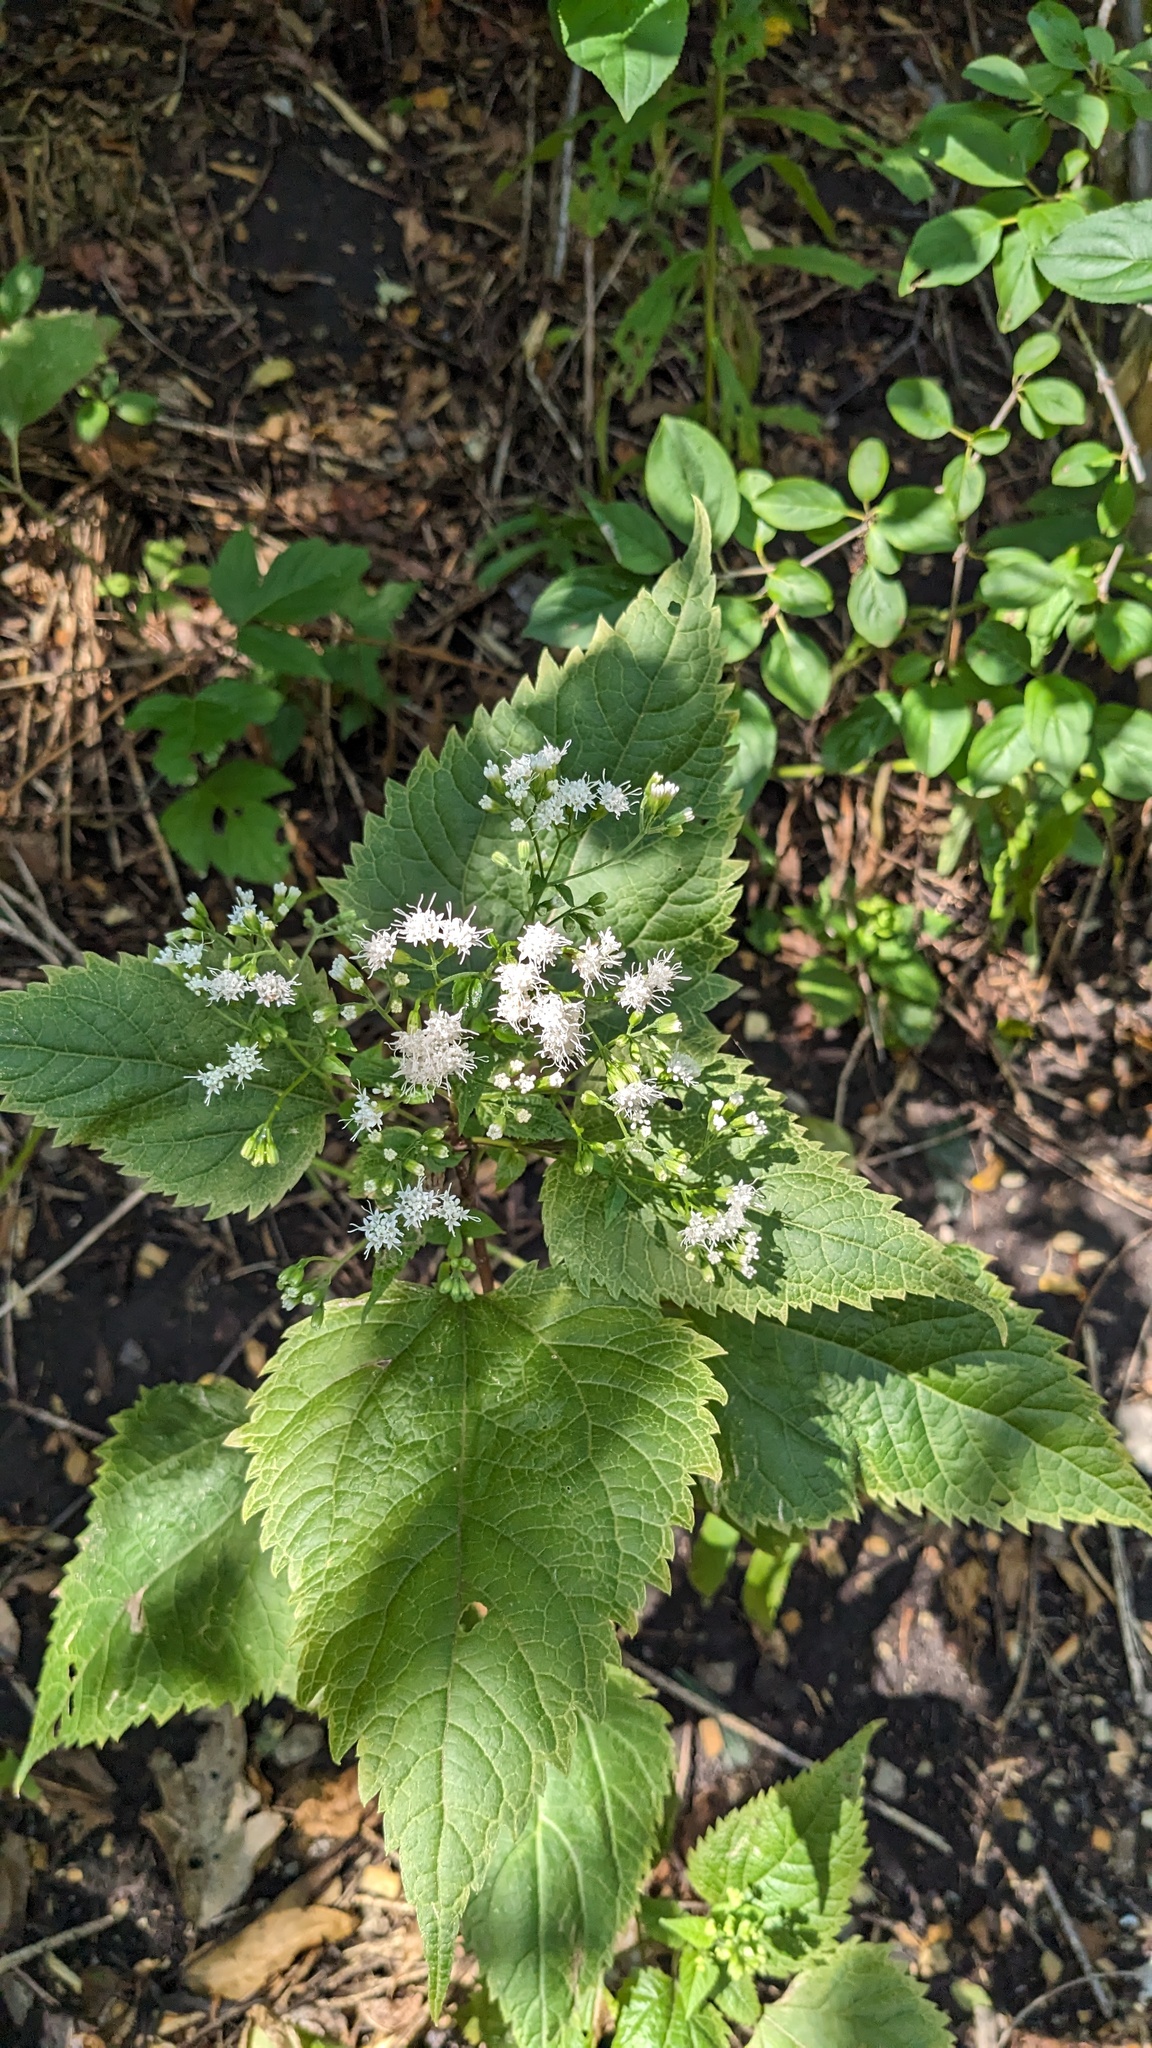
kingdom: Plantae
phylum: Tracheophyta
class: Magnoliopsida
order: Asterales
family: Asteraceae
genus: Ageratina
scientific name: Ageratina altissima
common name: White snakeroot
